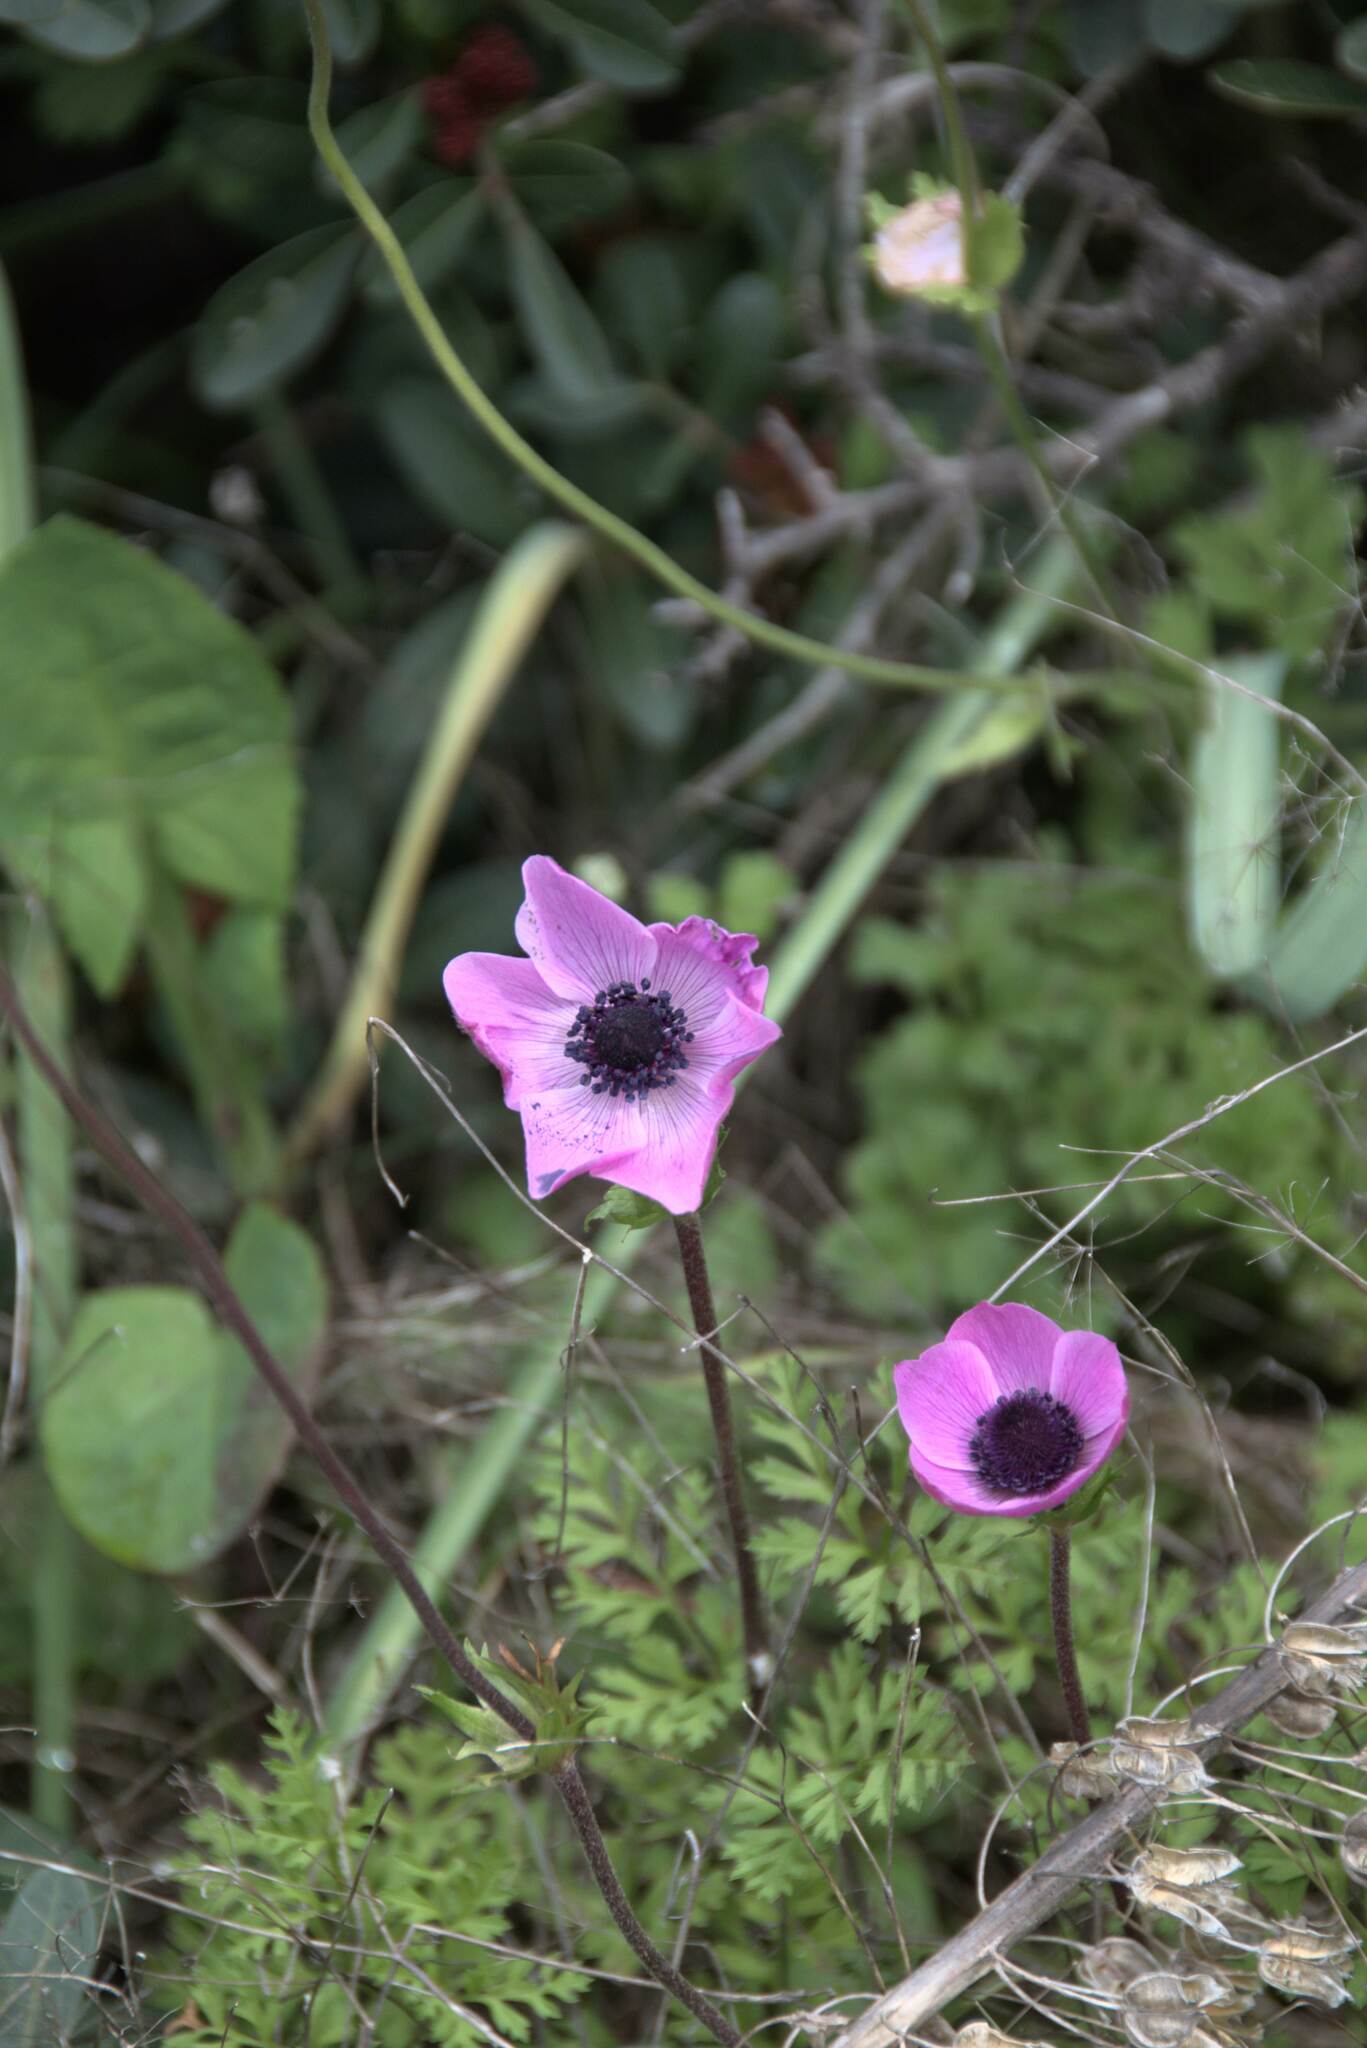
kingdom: Plantae
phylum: Tracheophyta
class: Magnoliopsida
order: Ranunculales
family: Ranunculaceae
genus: Anemone
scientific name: Anemone coronaria
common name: Poppy anemone
